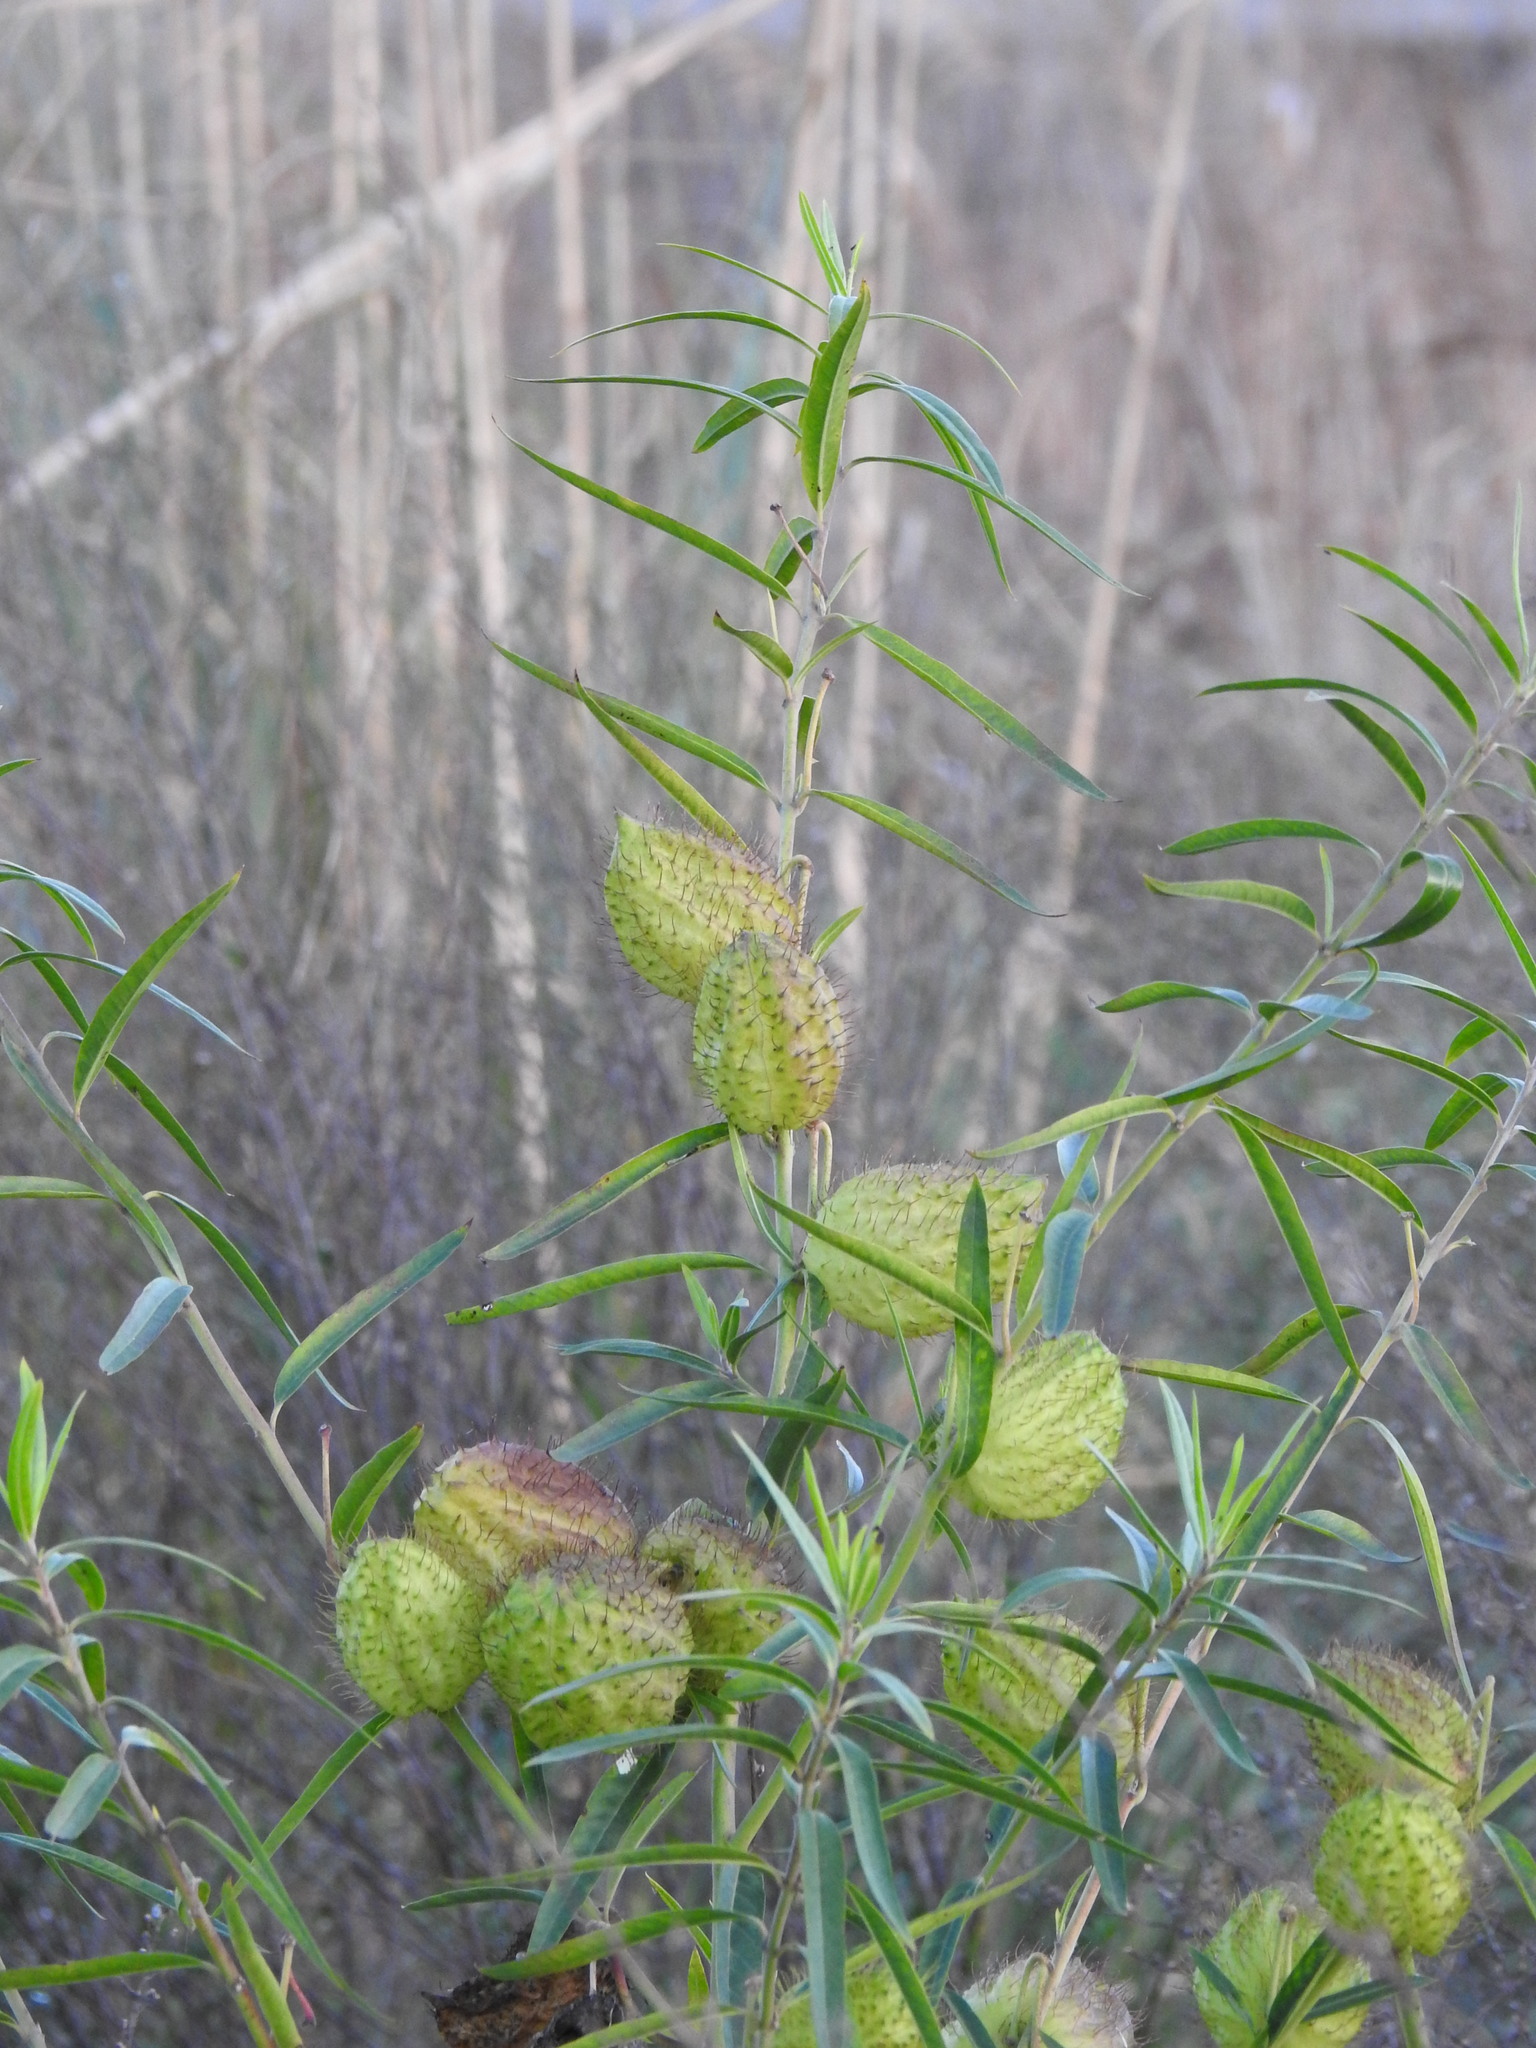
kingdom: Plantae
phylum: Tracheophyta
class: Magnoliopsida
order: Gentianales
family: Apocynaceae
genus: Gomphocarpus
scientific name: Gomphocarpus physocarpus
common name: Balloon cotton bush
